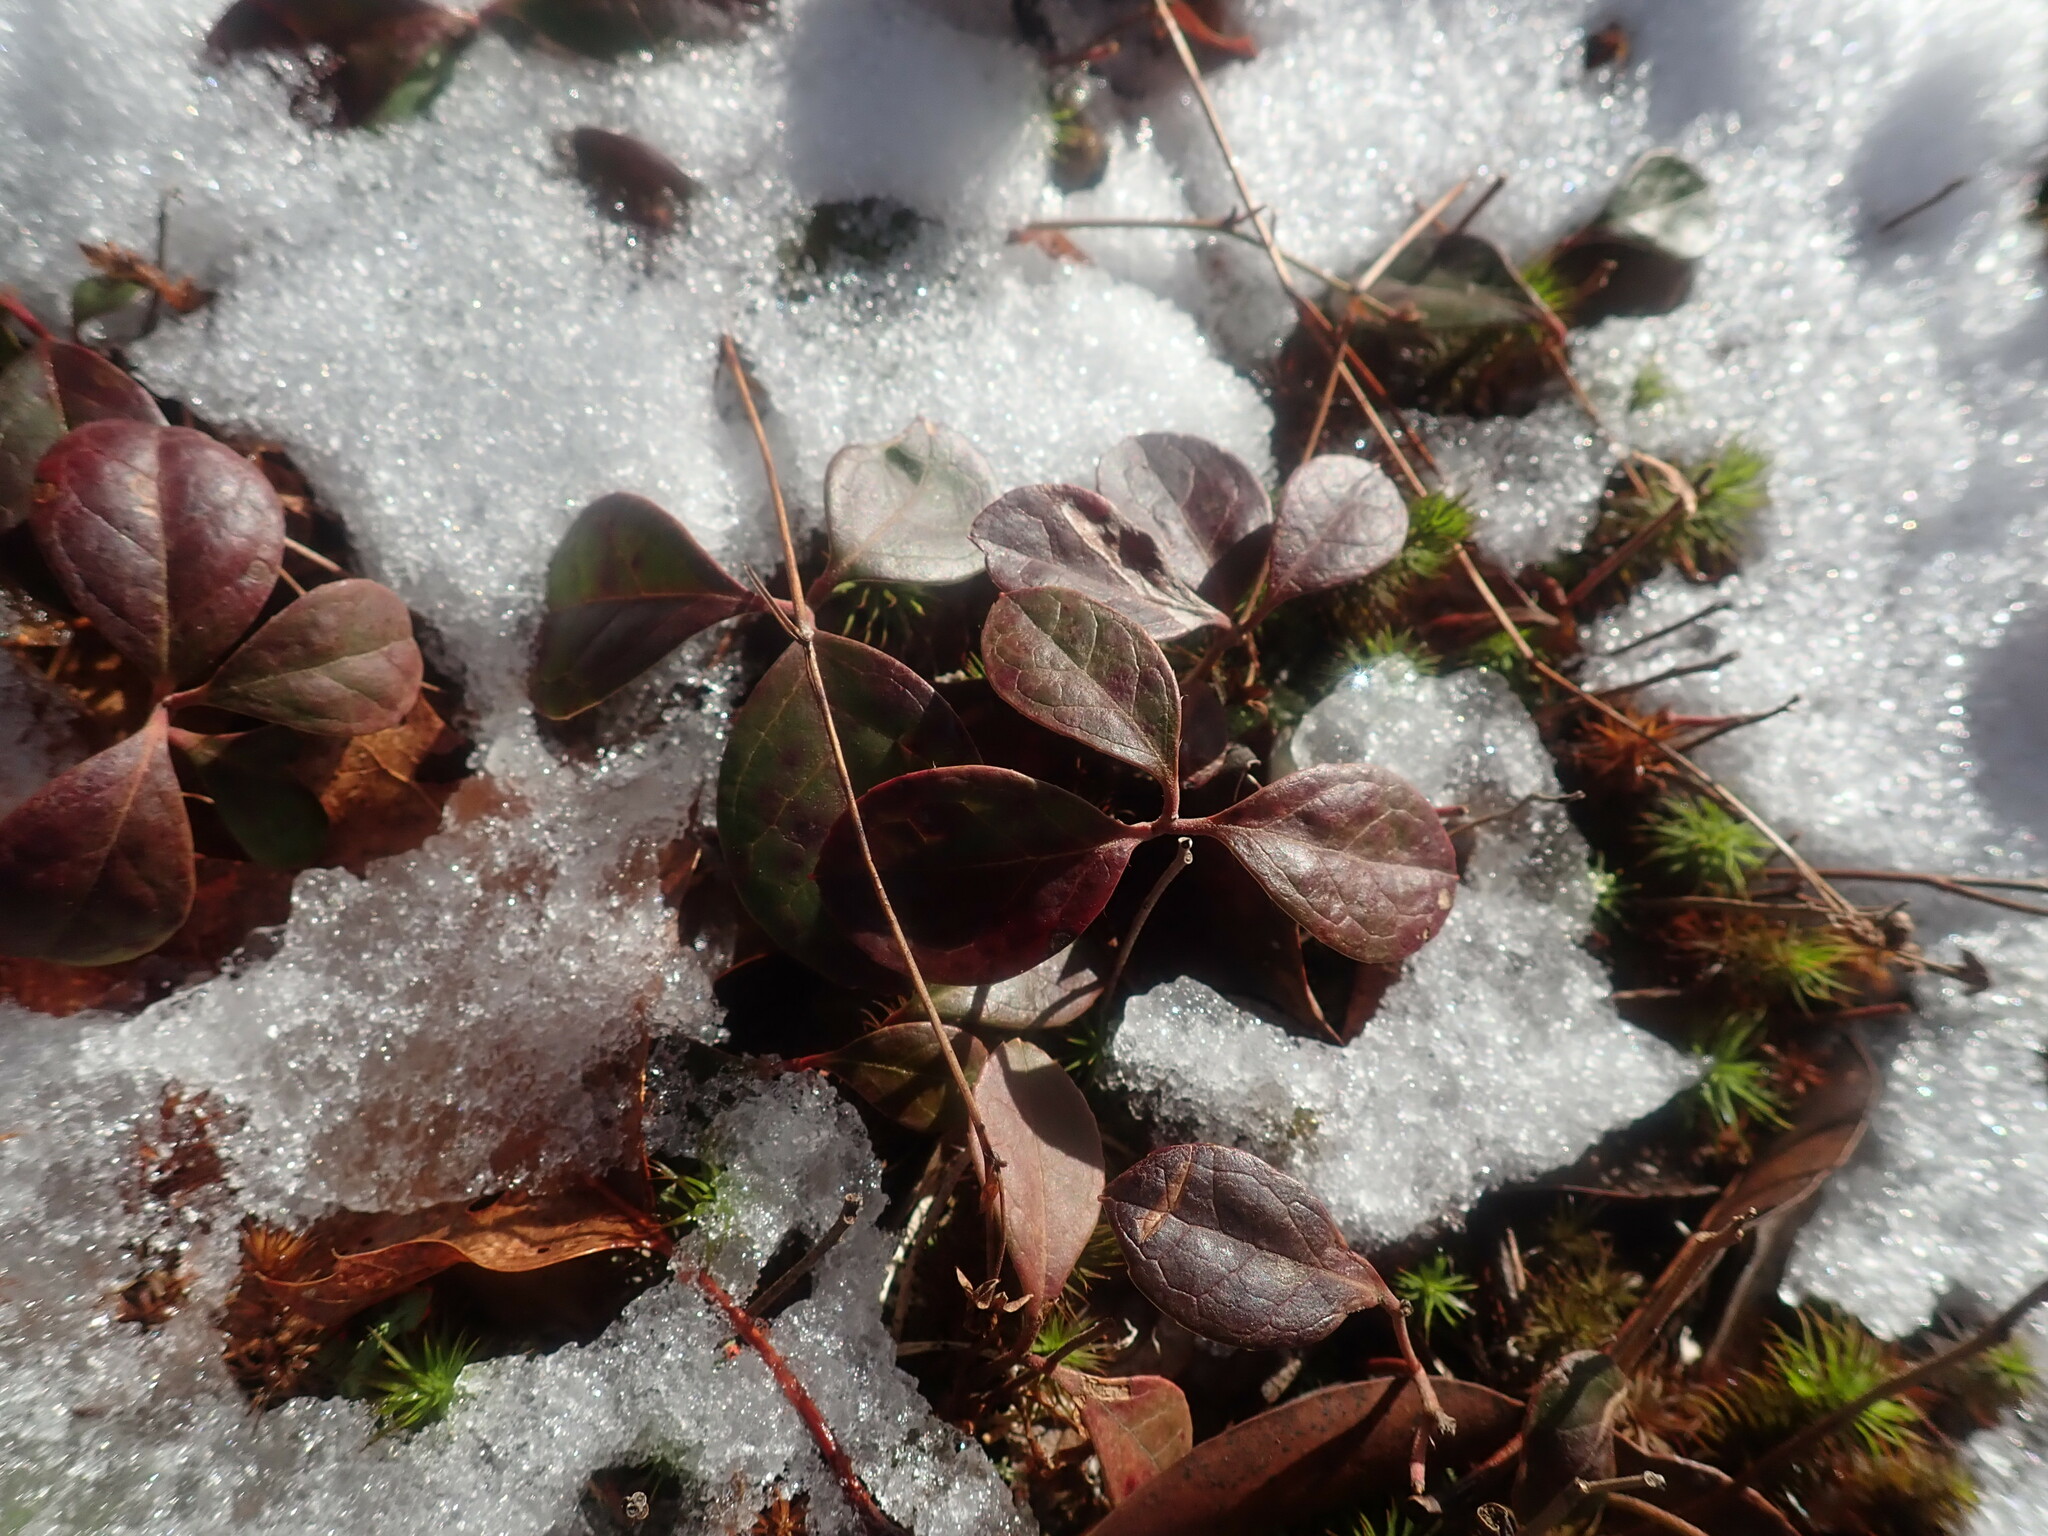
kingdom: Plantae
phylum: Tracheophyta
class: Magnoliopsida
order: Ericales
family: Ericaceae
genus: Gaultheria
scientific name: Gaultheria procumbens
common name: Checkerberry
